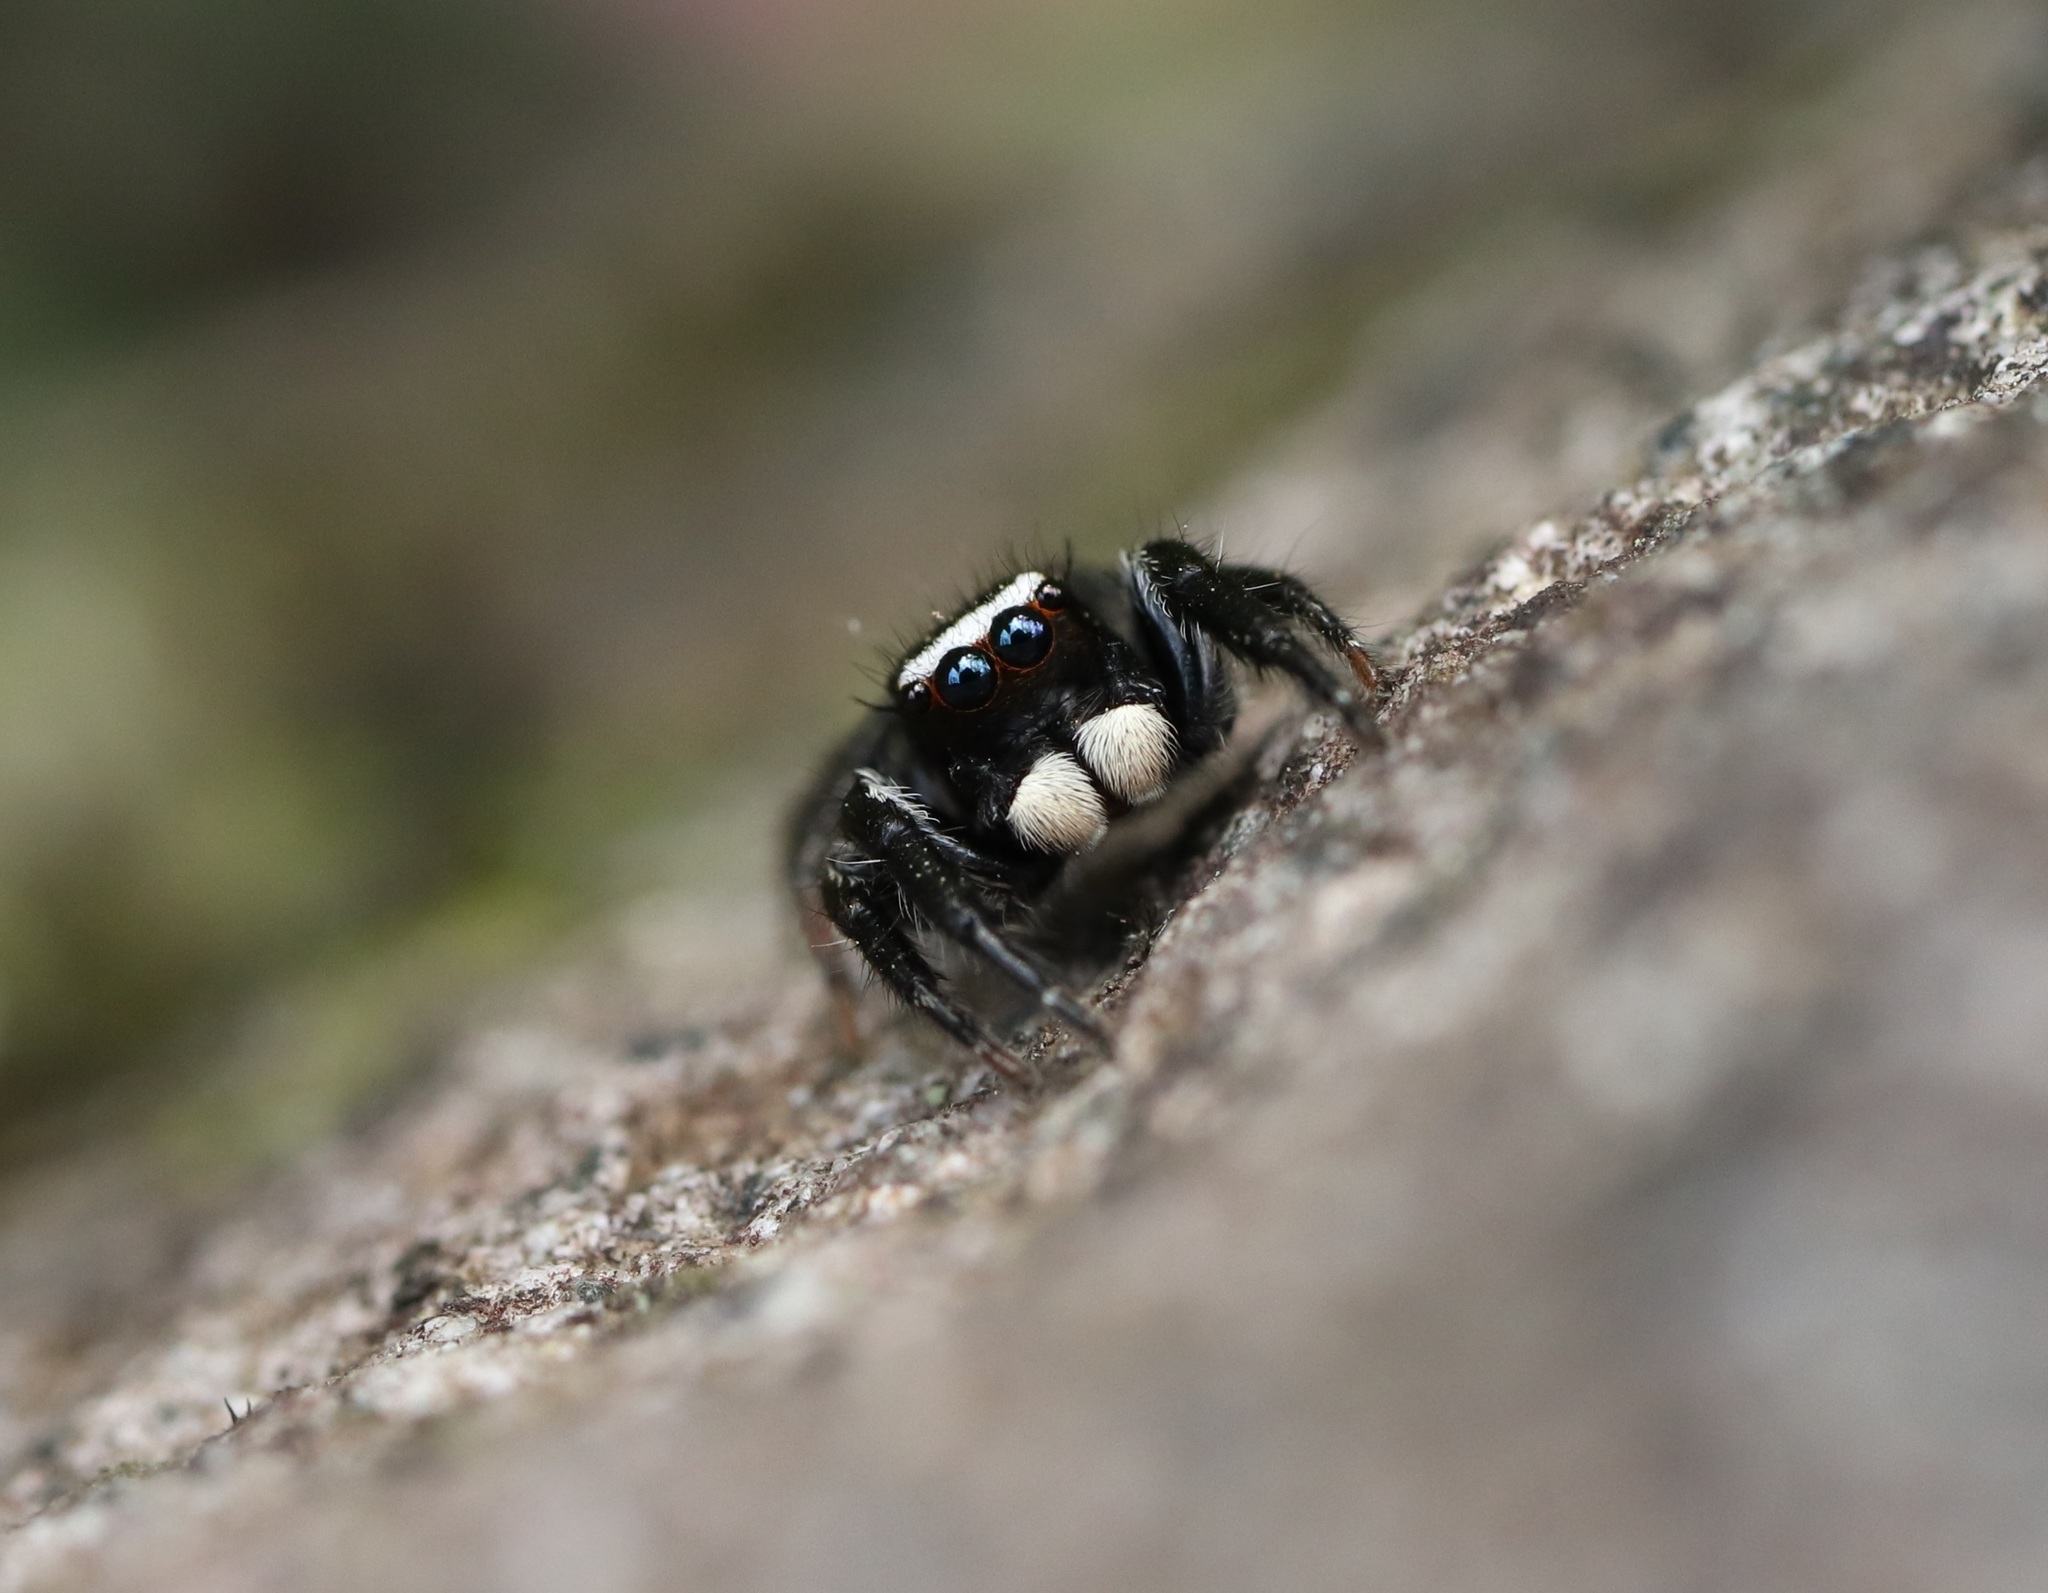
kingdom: Animalia
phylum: Arthropoda
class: Arachnida
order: Araneae
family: Salticidae
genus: Evarcha
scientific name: Evarcha albaria
